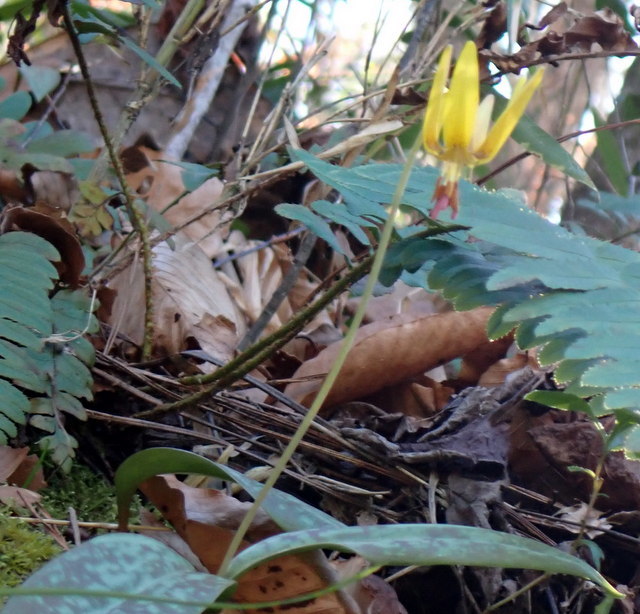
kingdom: Plantae
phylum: Tracheophyta
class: Liliopsida
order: Liliales
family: Liliaceae
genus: Erythronium
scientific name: Erythronium umbilicatum
